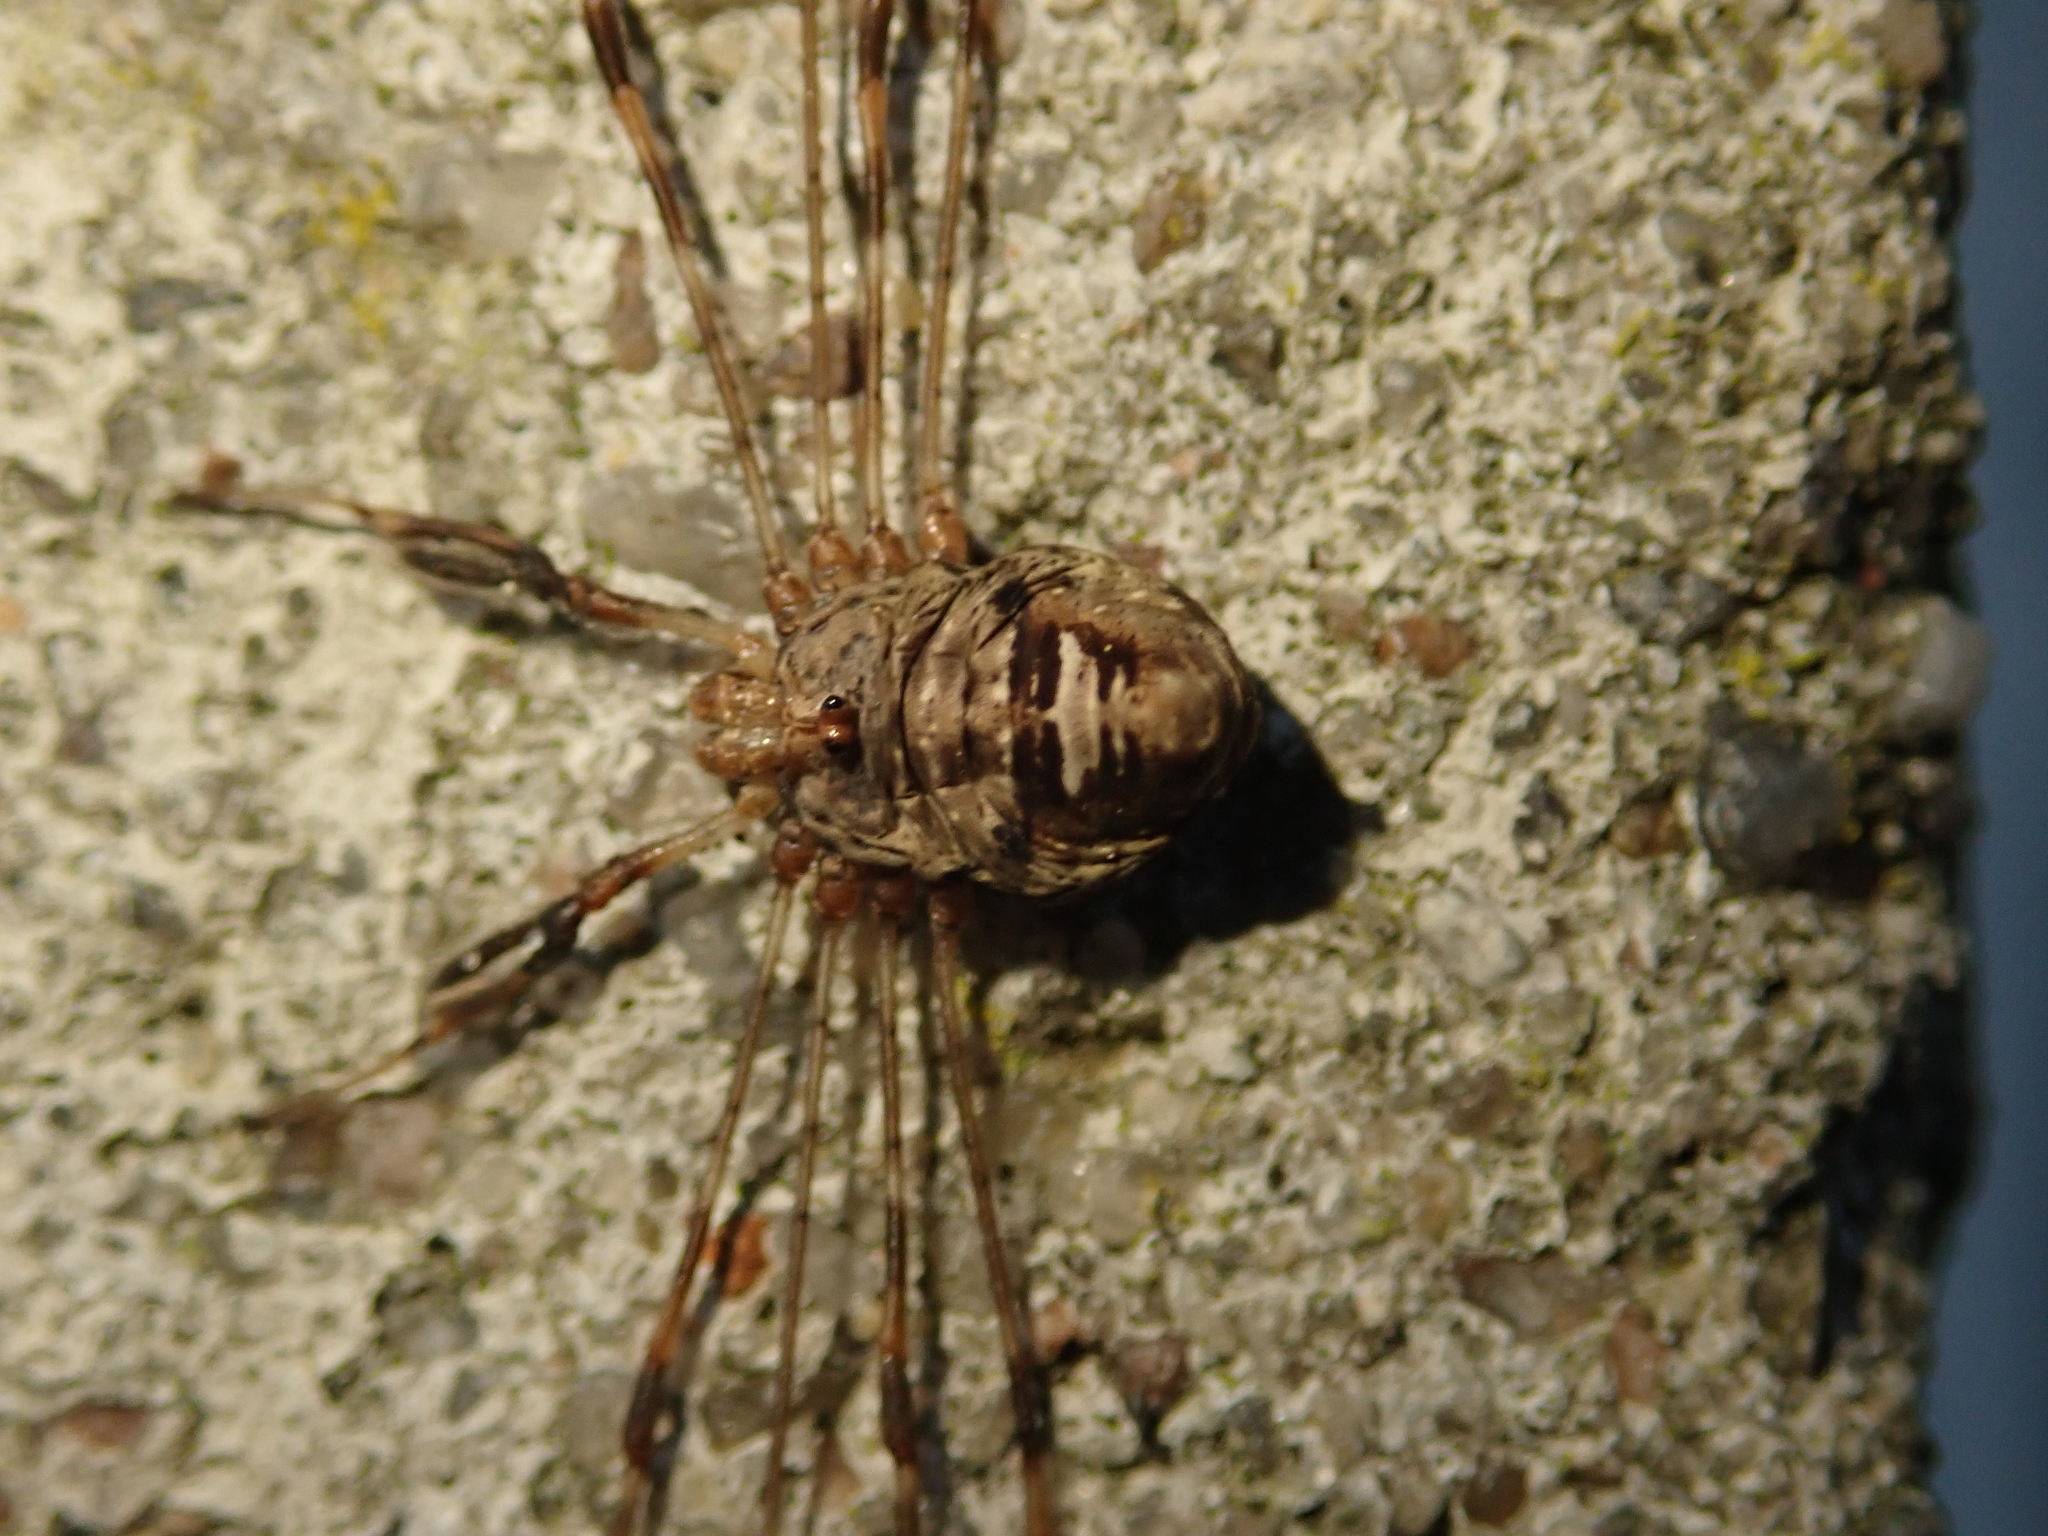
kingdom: Animalia
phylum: Arthropoda
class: Arachnida
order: Opiliones
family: Phalangiidae
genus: Dicranopalpus
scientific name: Dicranopalpus ramosus
